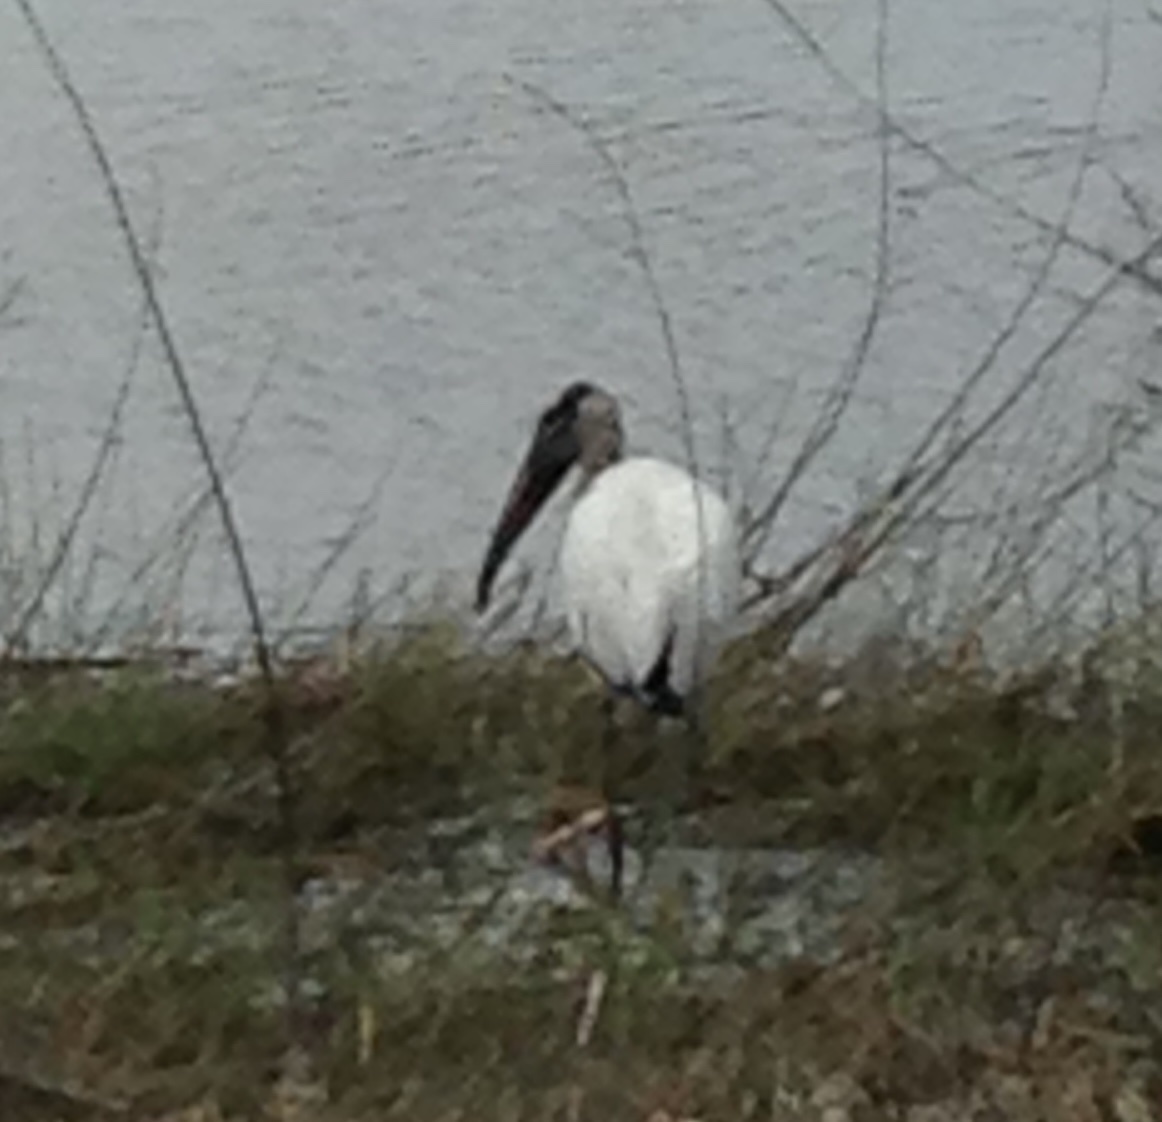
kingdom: Animalia
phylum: Chordata
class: Aves
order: Ciconiiformes
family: Ciconiidae
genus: Mycteria
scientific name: Mycteria americana
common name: Wood stork
